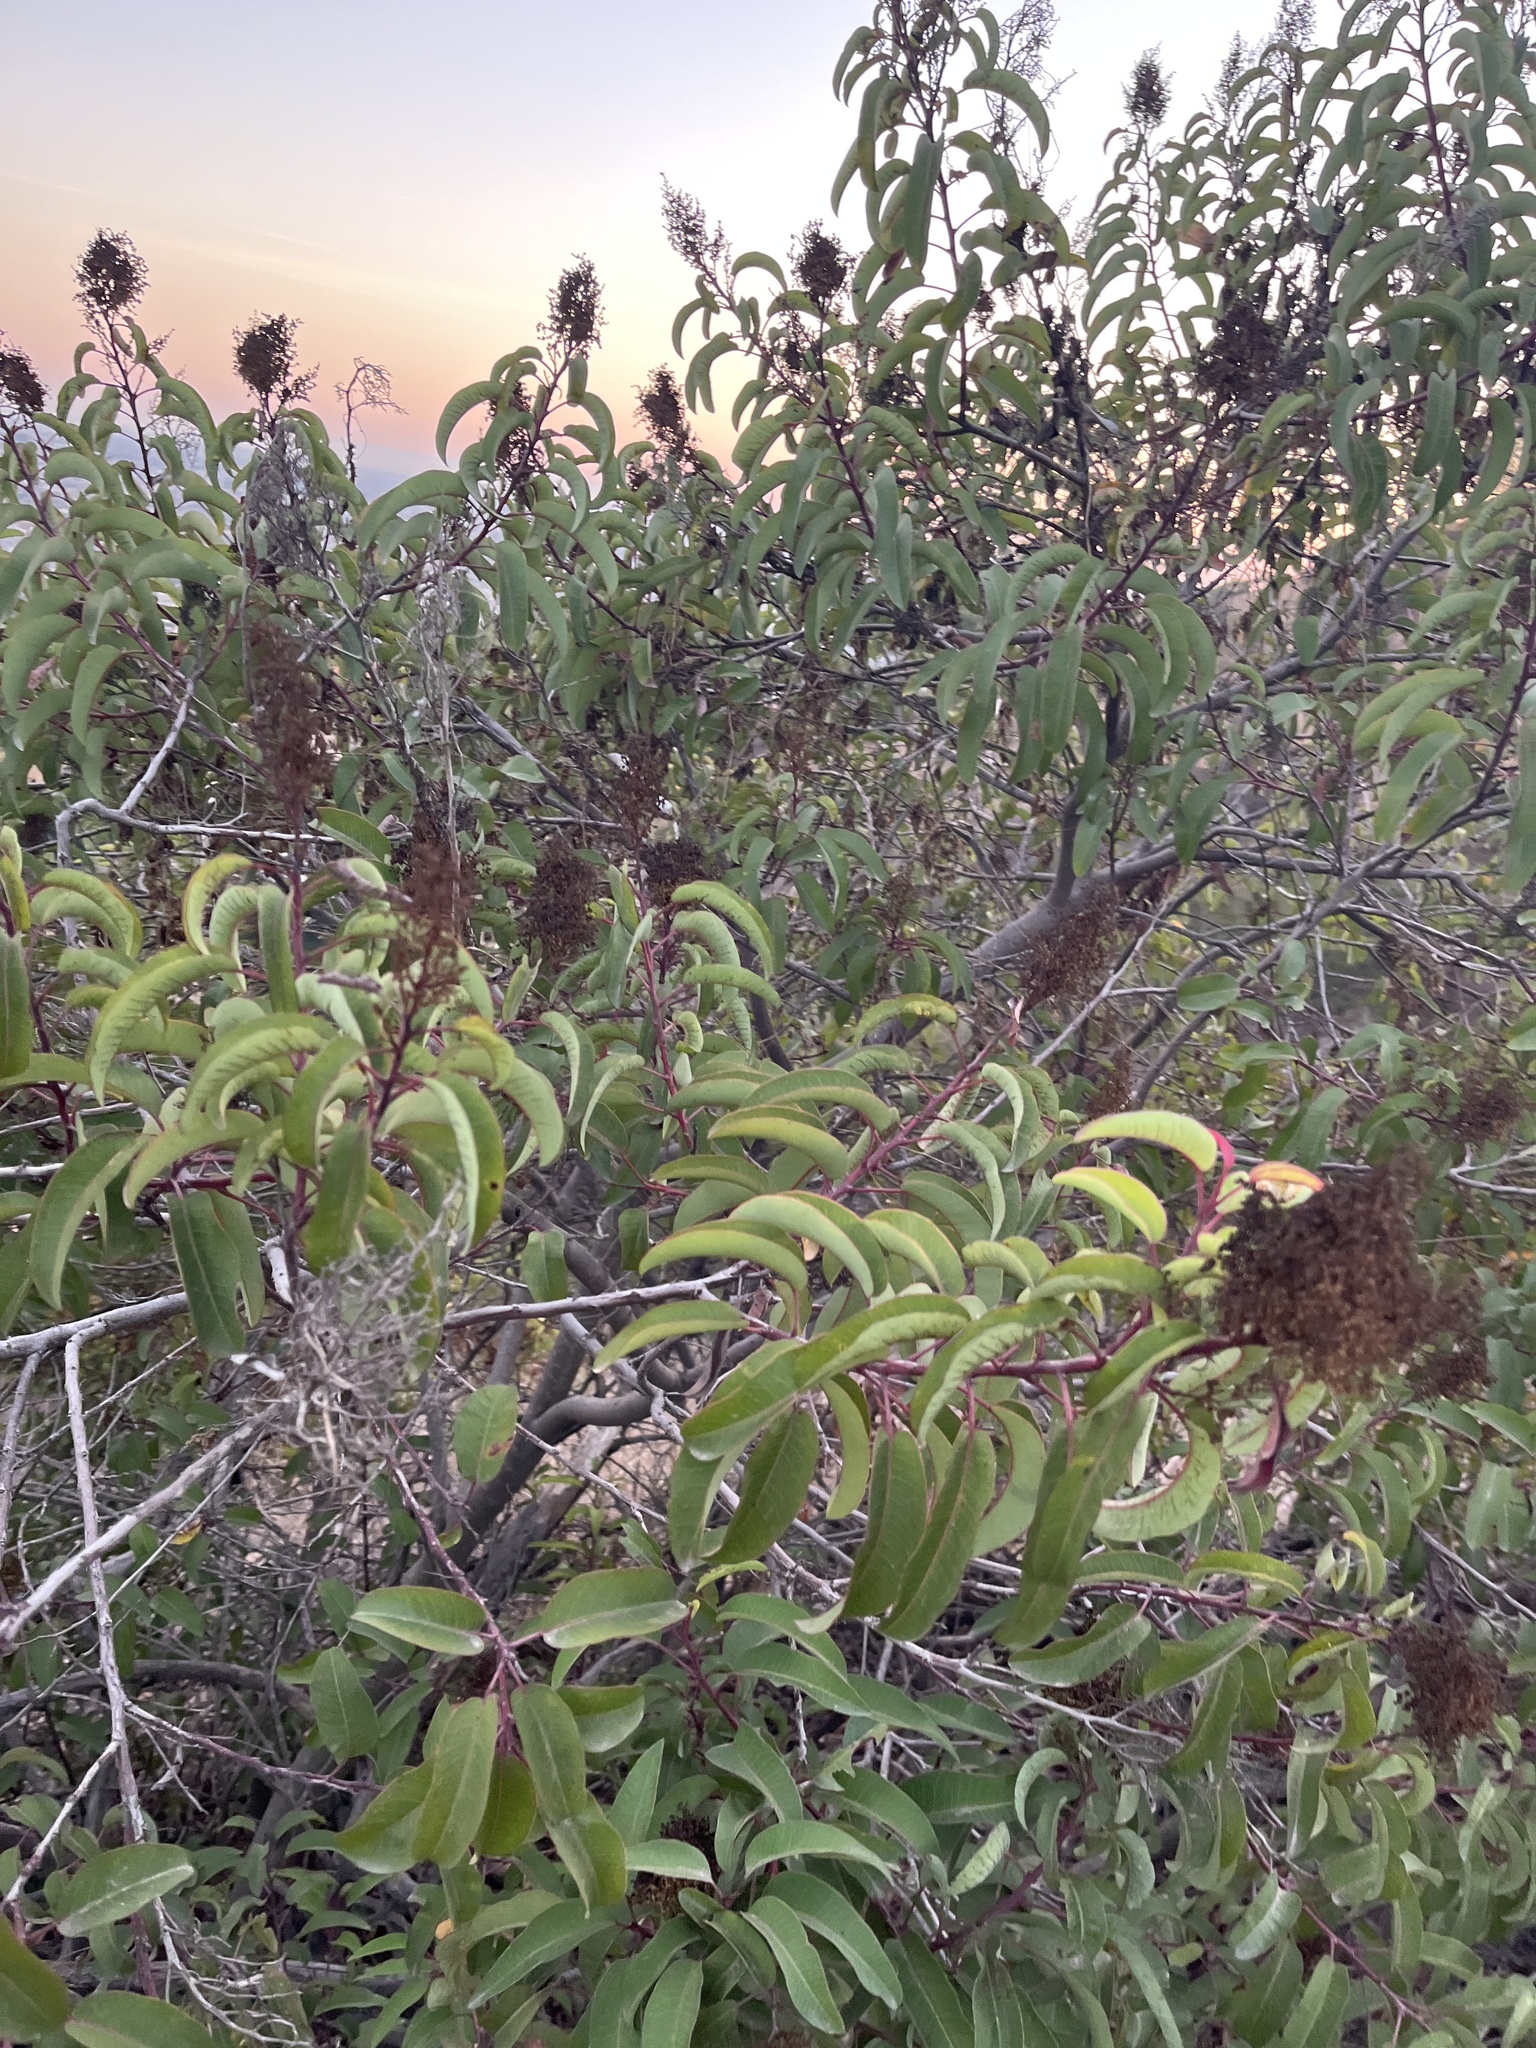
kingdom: Plantae
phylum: Tracheophyta
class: Magnoliopsida
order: Sapindales
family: Anacardiaceae
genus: Malosma
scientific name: Malosma laurina
